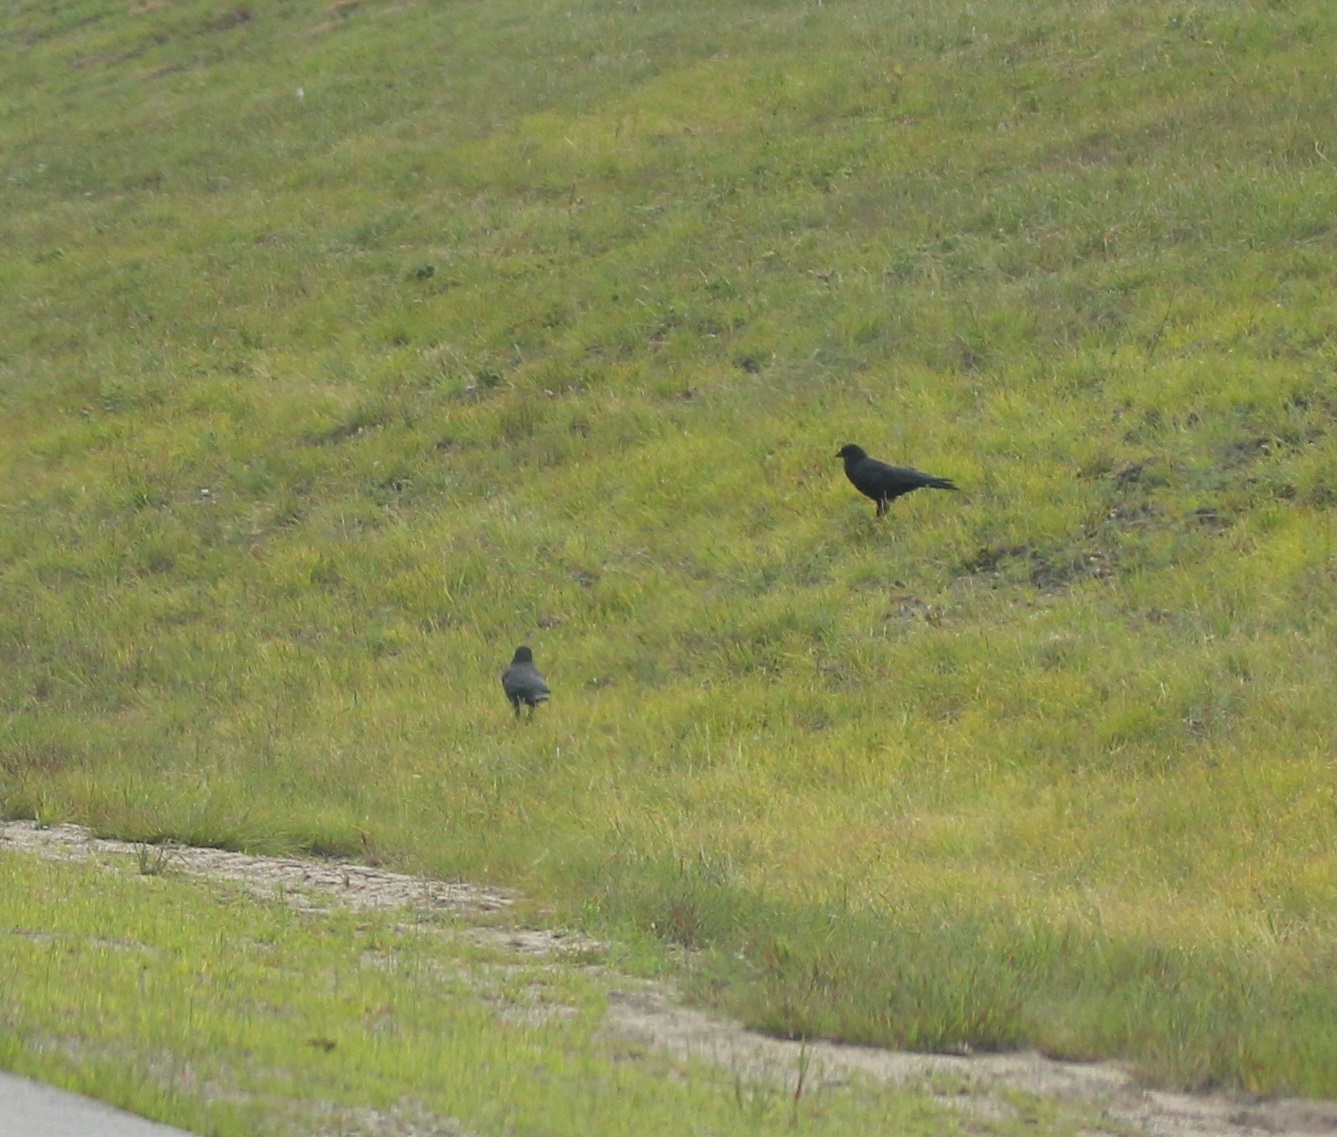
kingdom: Animalia
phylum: Chordata
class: Aves
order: Passeriformes
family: Corvidae
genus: Corvus
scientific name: Corvus
